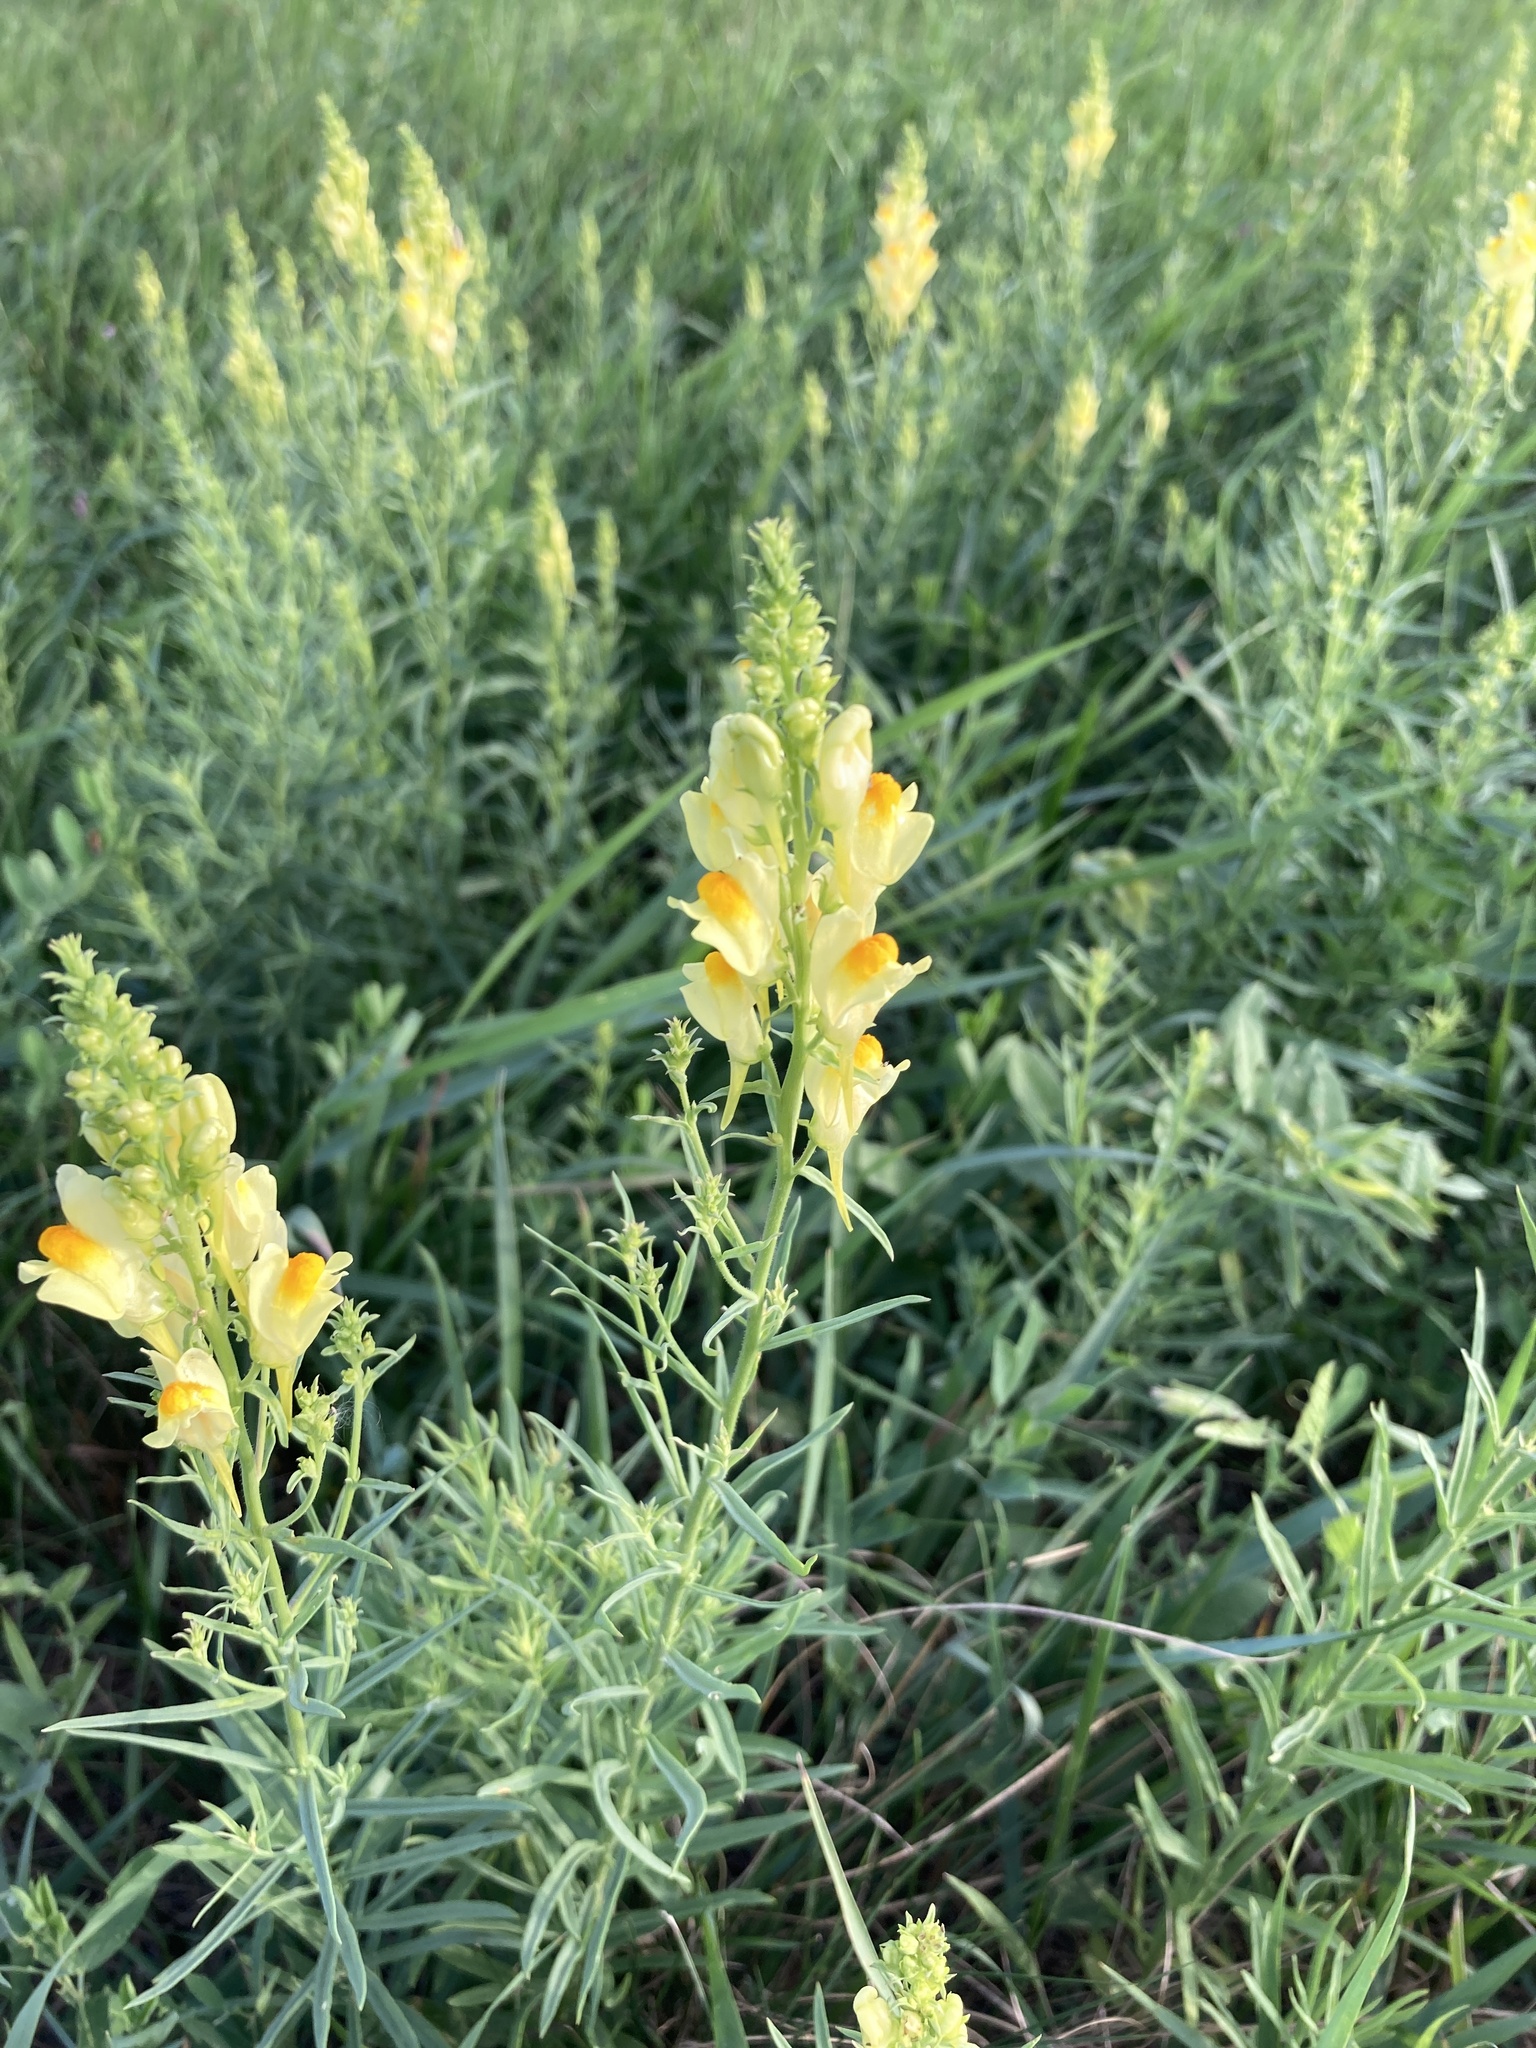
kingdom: Plantae
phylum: Tracheophyta
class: Magnoliopsida
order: Lamiales
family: Plantaginaceae
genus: Linaria
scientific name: Linaria vulgaris
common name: Butter and eggs
